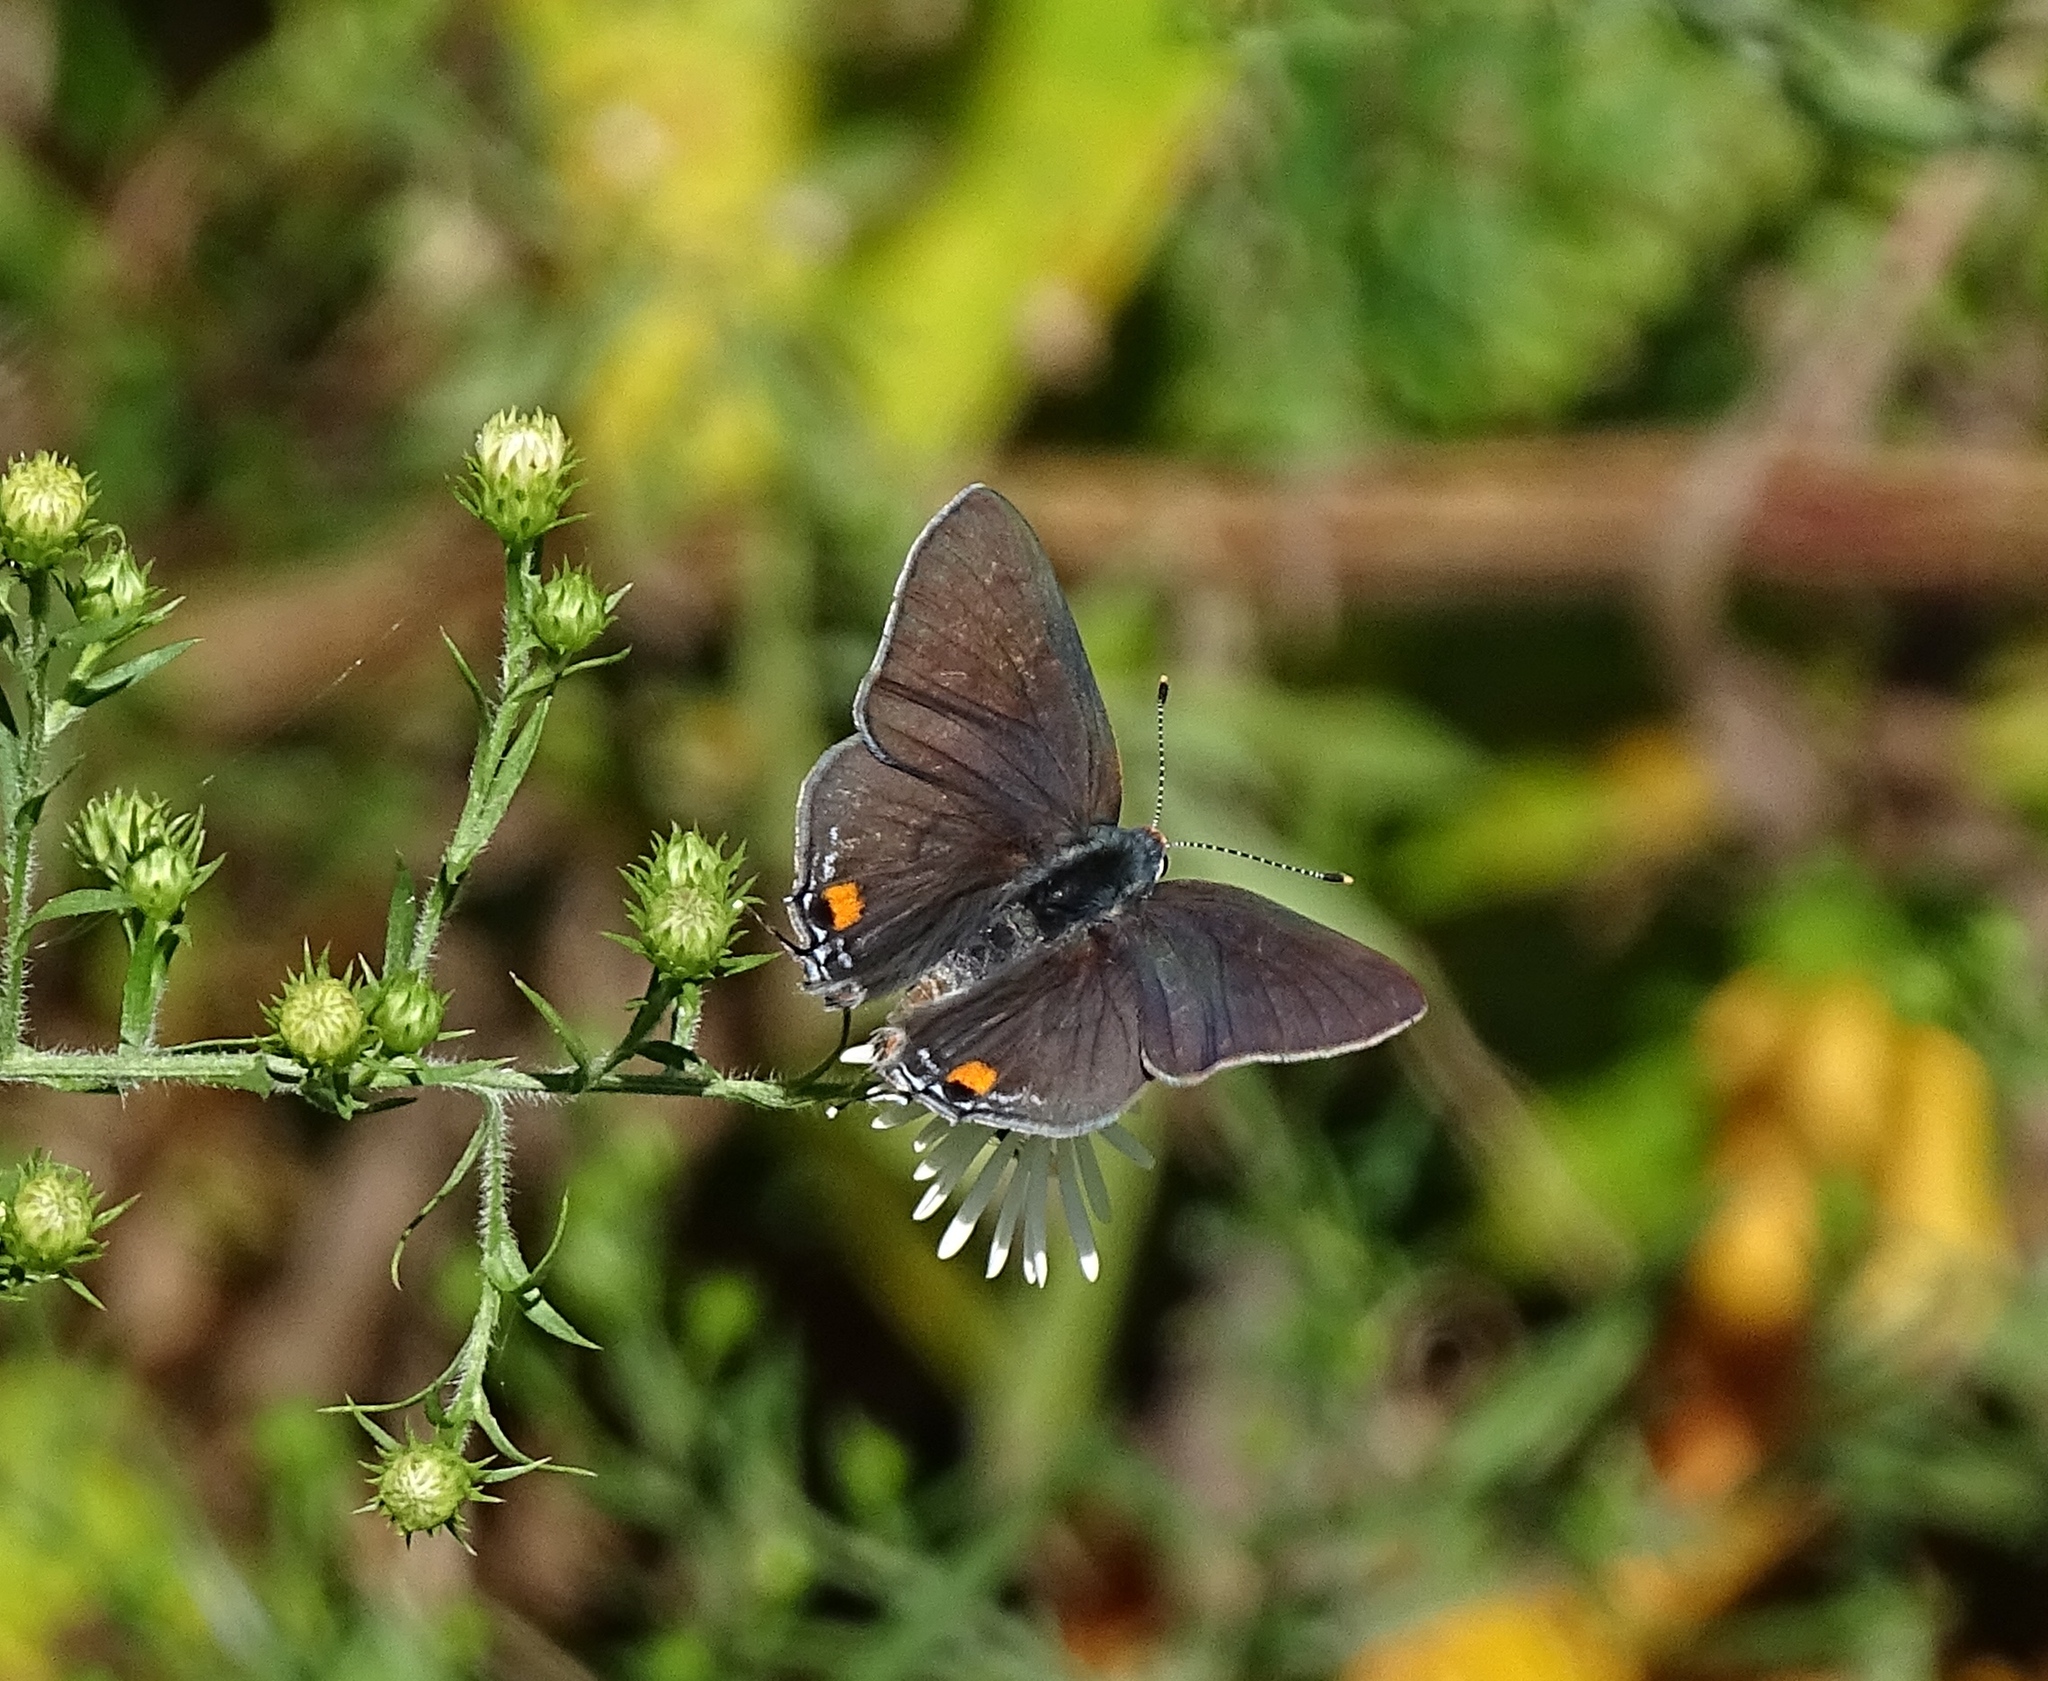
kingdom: Animalia
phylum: Arthropoda
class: Insecta
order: Lepidoptera
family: Lycaenidae
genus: Strymon
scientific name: Strymon melinus
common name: Gray hairstreak
